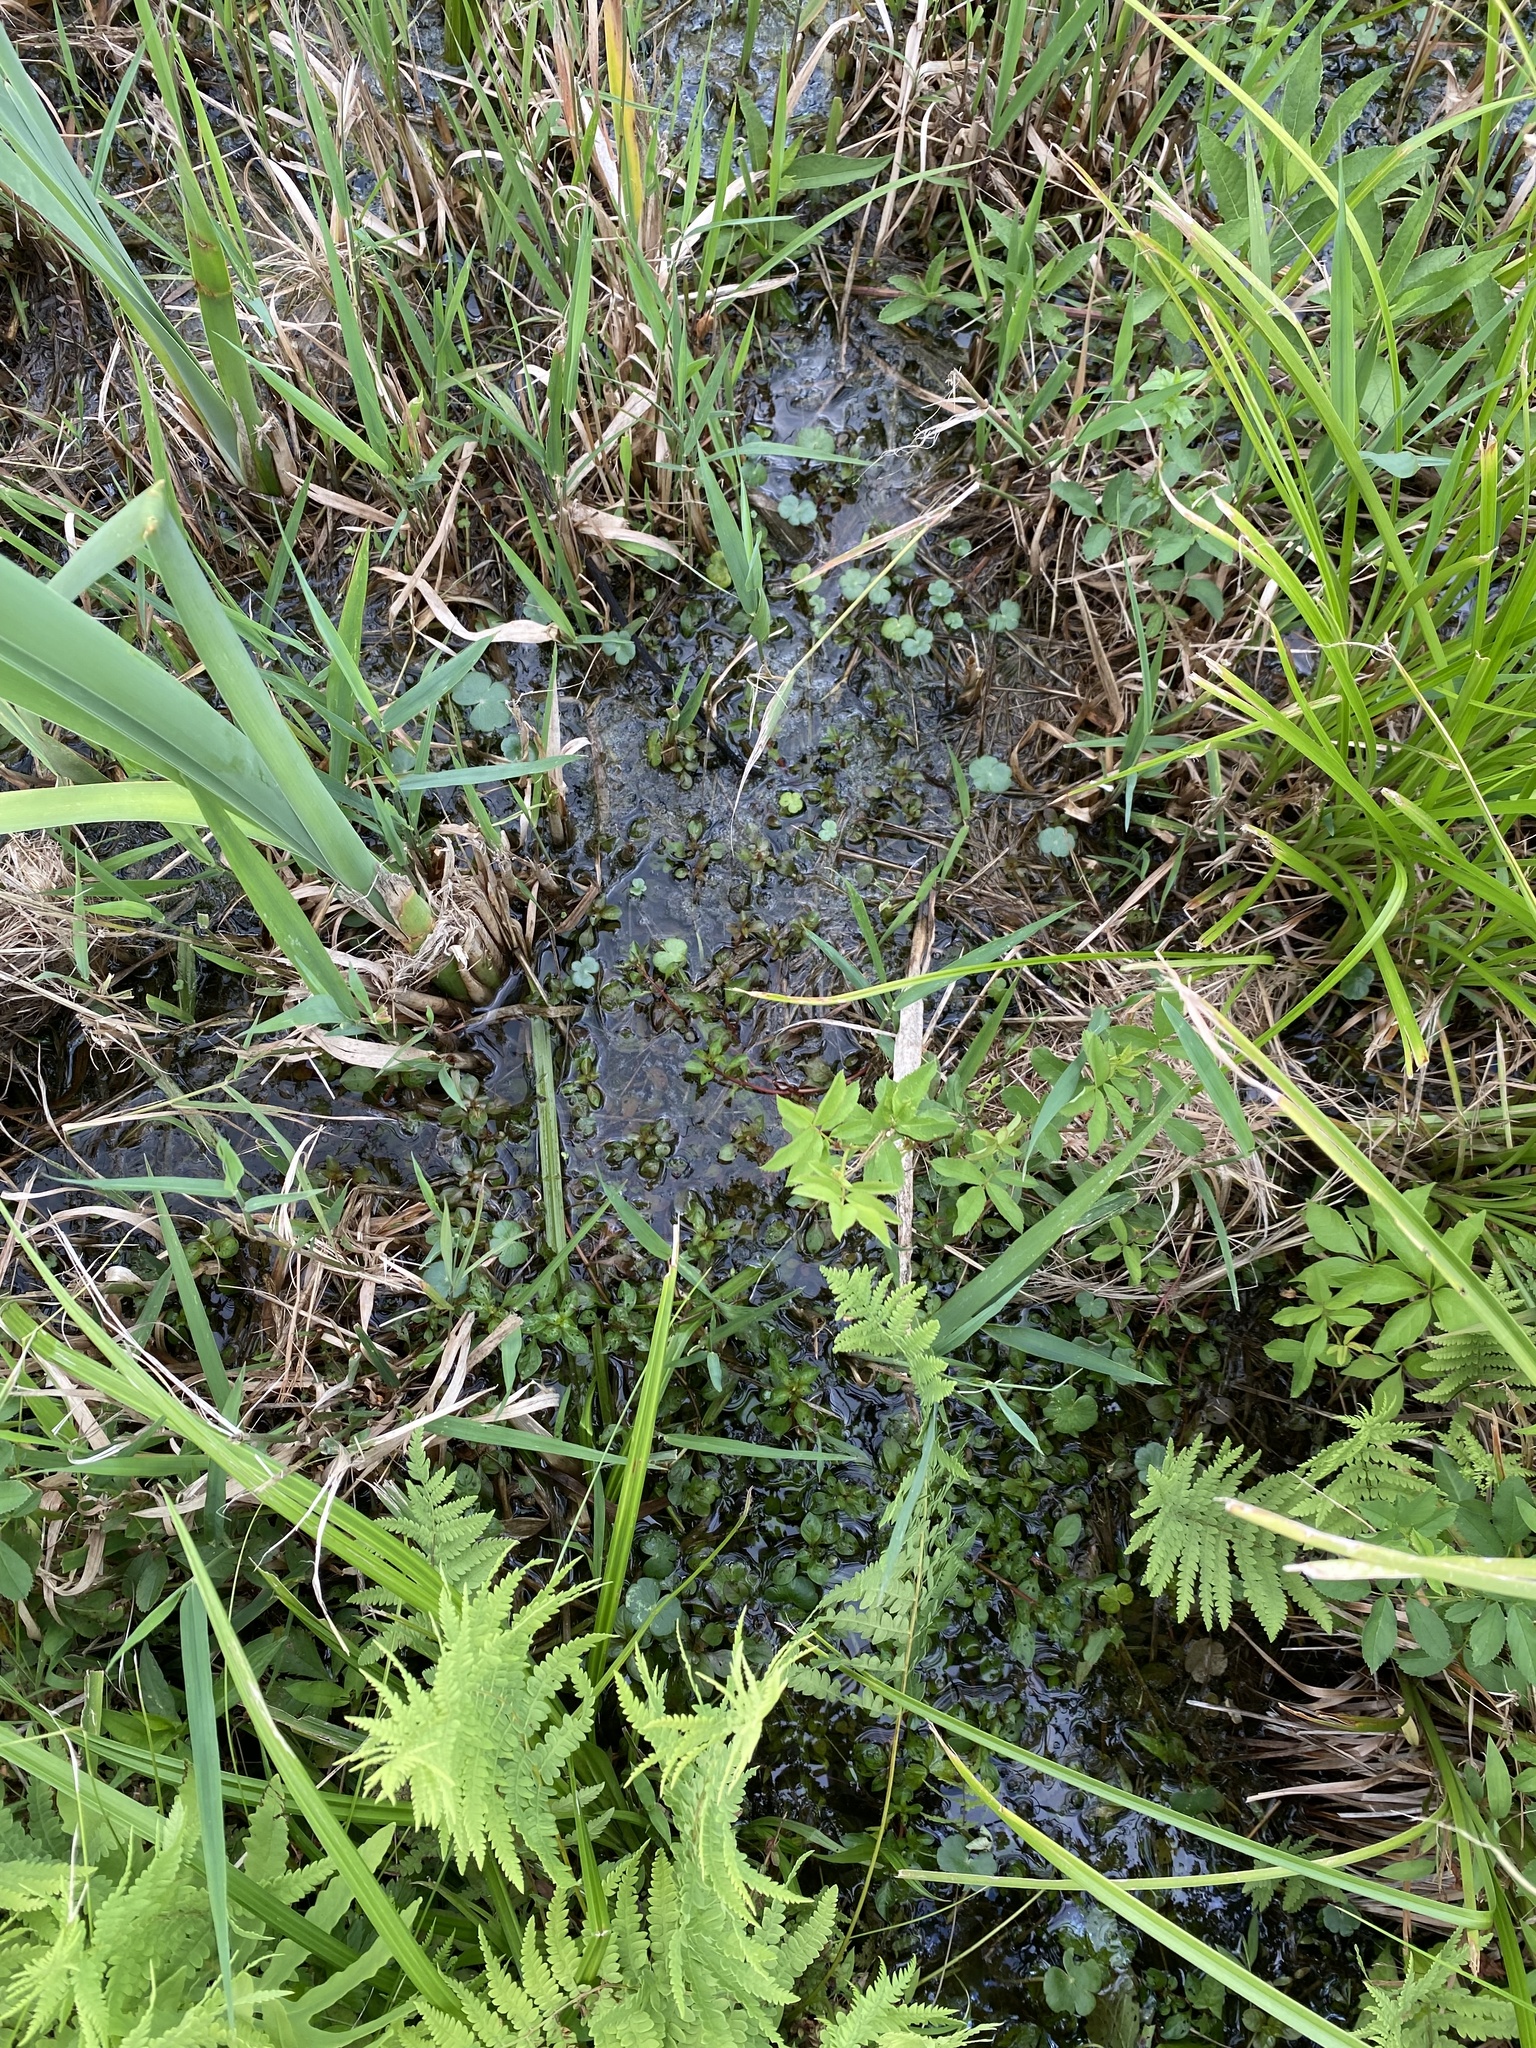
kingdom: Plantae
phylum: Tracheophyta
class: Magnoliopsida
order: Apiales
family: Araliaceae
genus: Hydrocotyle
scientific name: Hydrocotyle ranunculoides
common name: Floating pennywort
